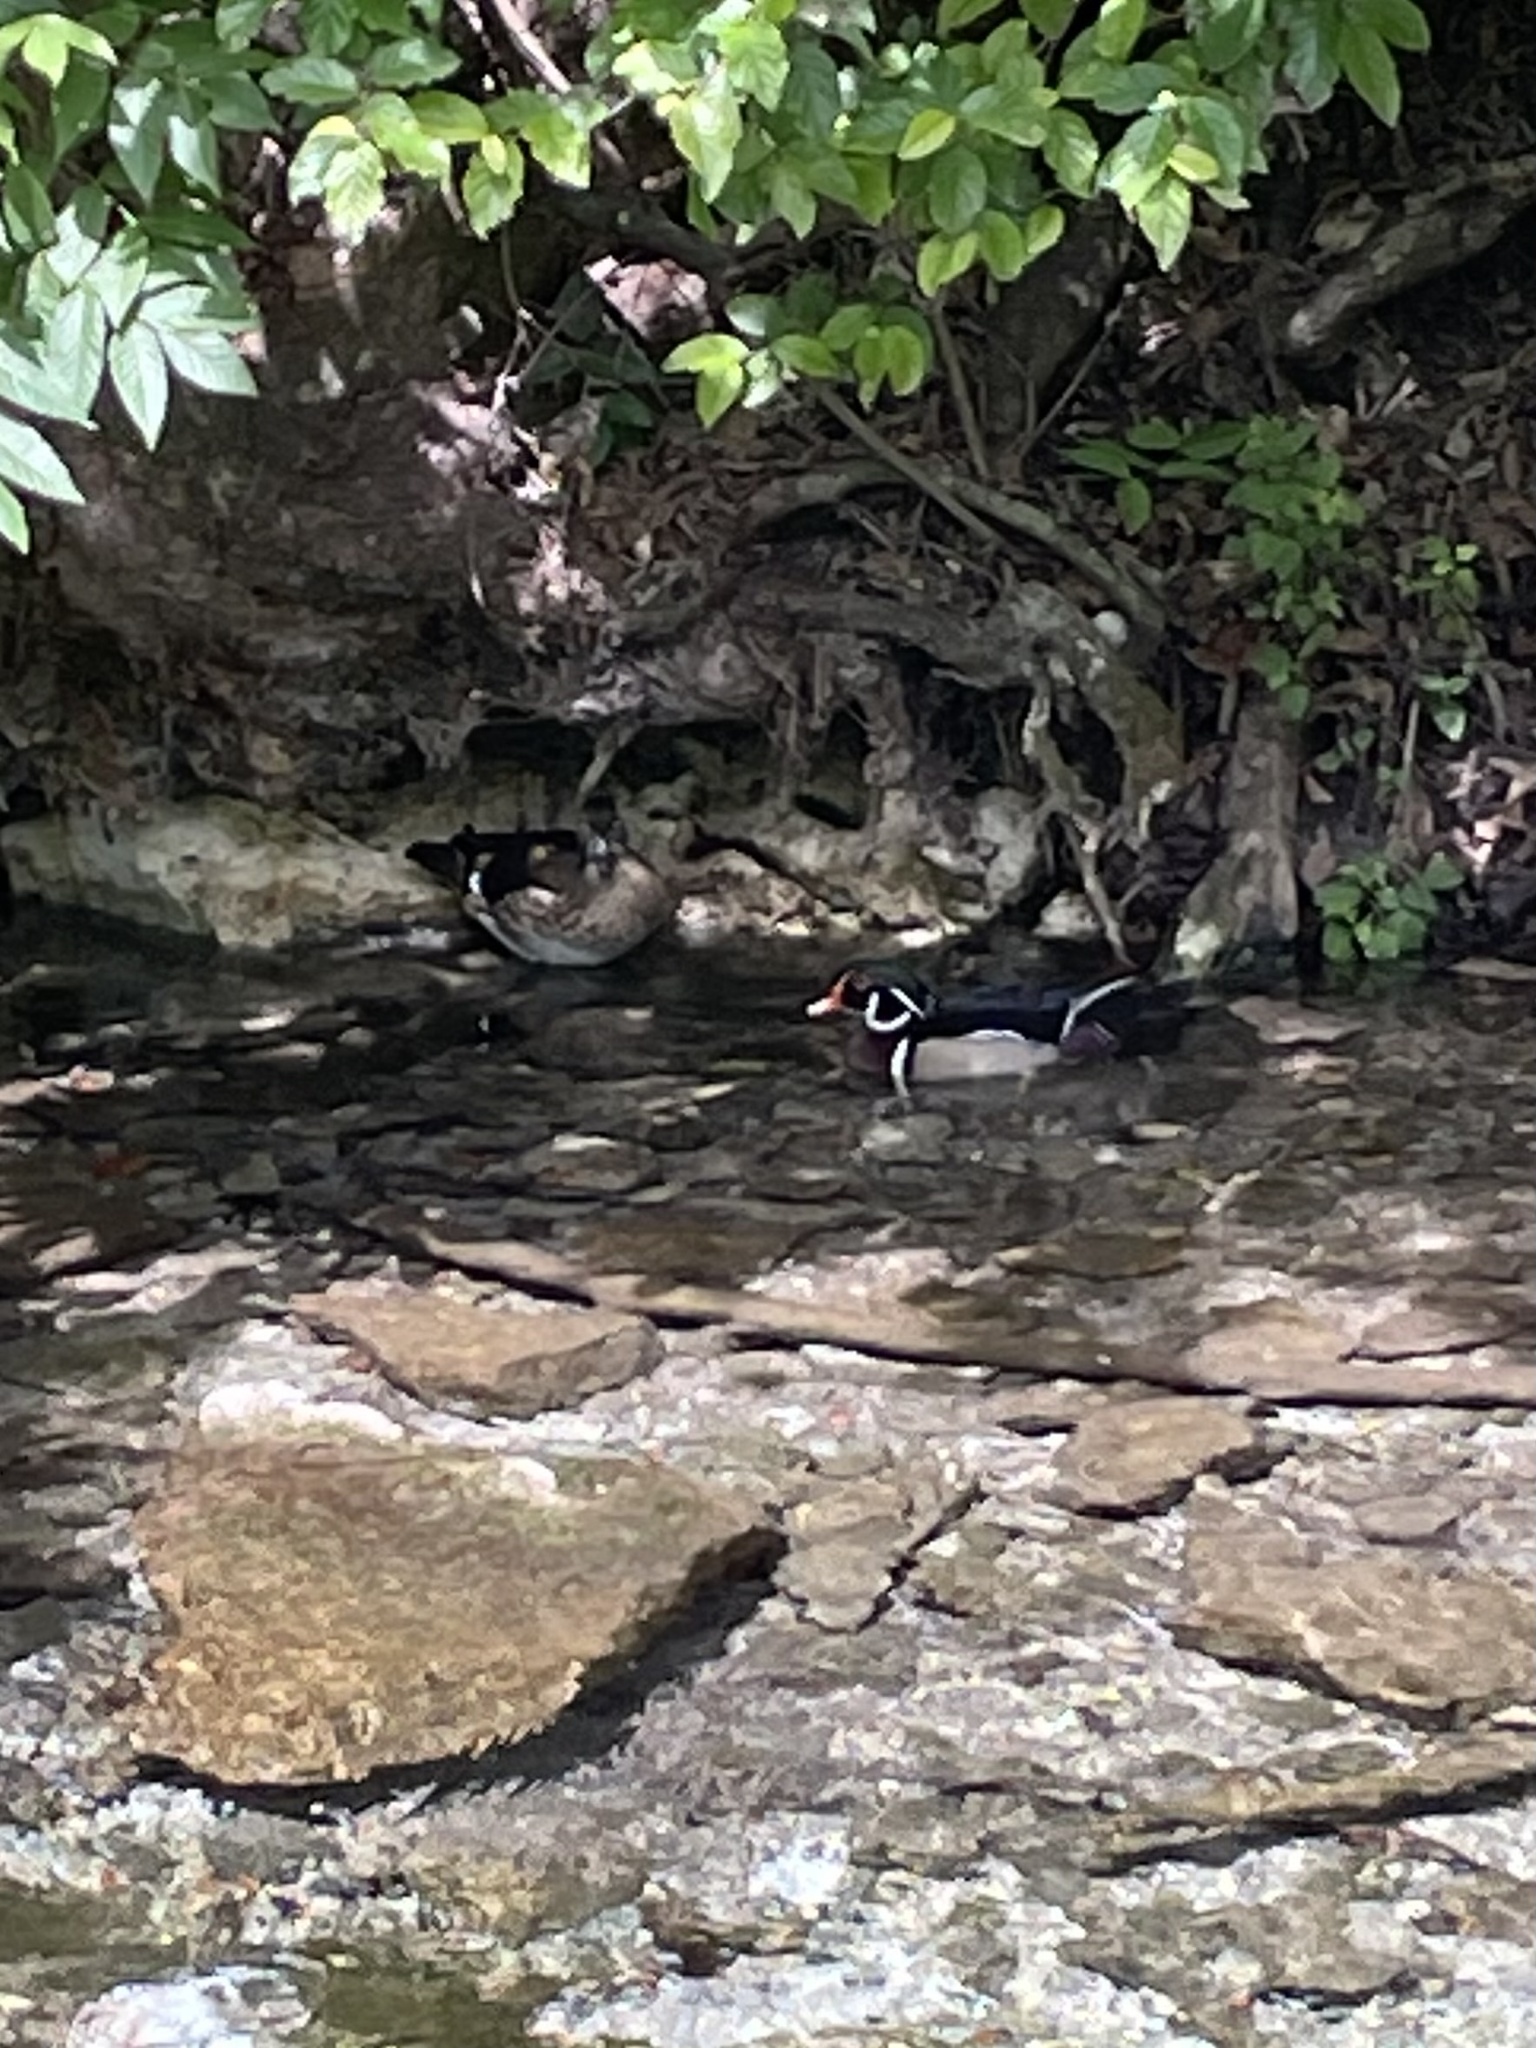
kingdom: Animalia
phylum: Chordata
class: Aves
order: Anseriformes
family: Anatidae
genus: Aix
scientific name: Aix sponsa
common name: Wood duck
